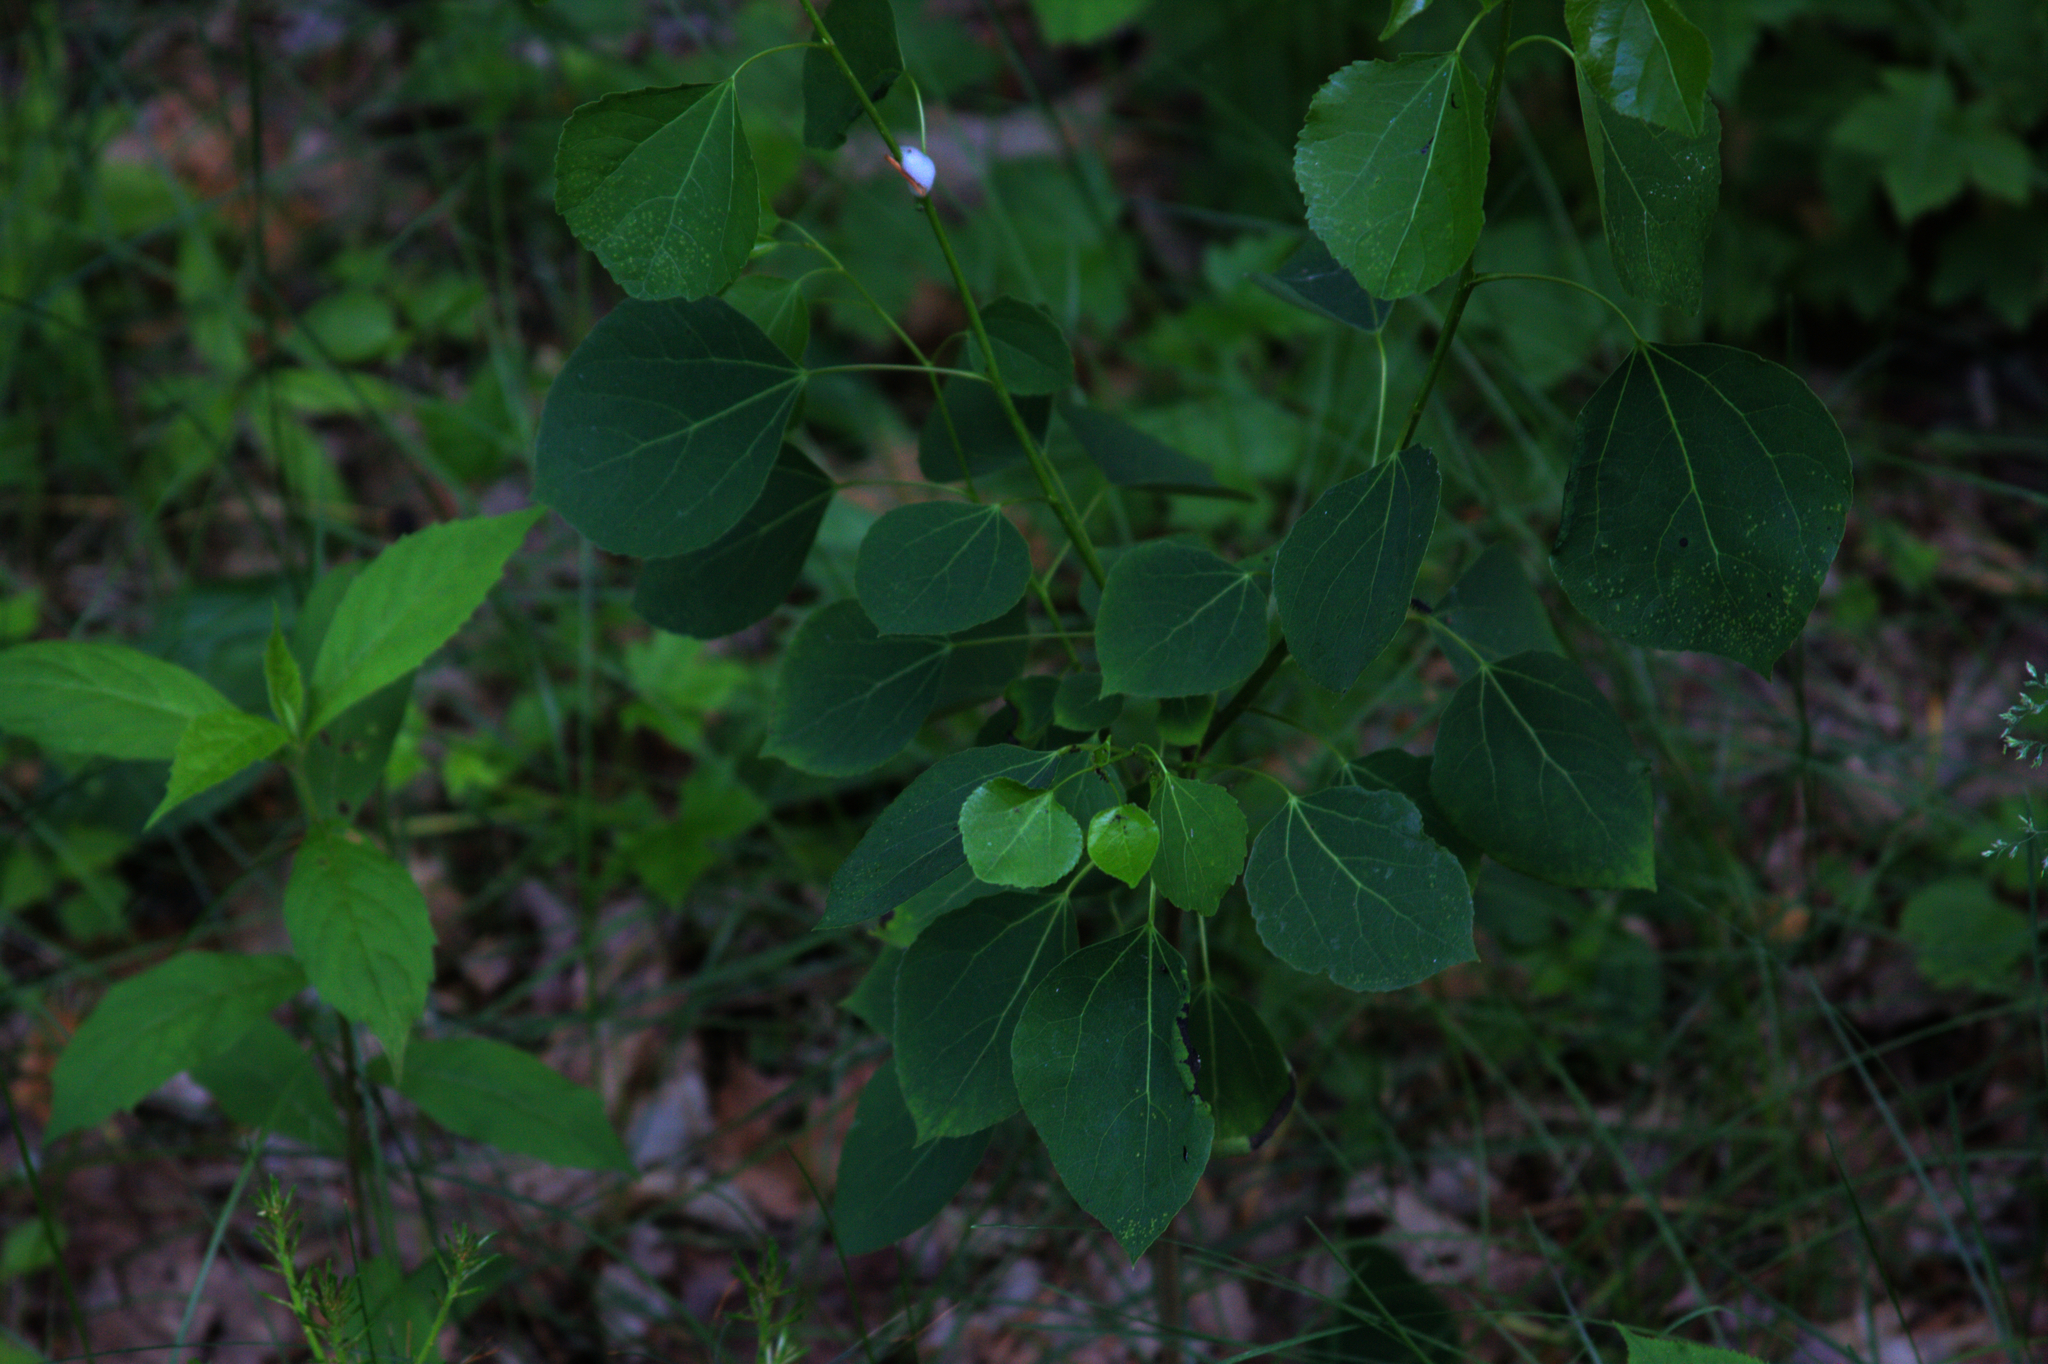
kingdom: Plantae
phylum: Tracheophyta
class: Magnoliopsida
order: Malpighiales
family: Salicaceae
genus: Populus
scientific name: Populus tremuloides
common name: Quaking aspen
